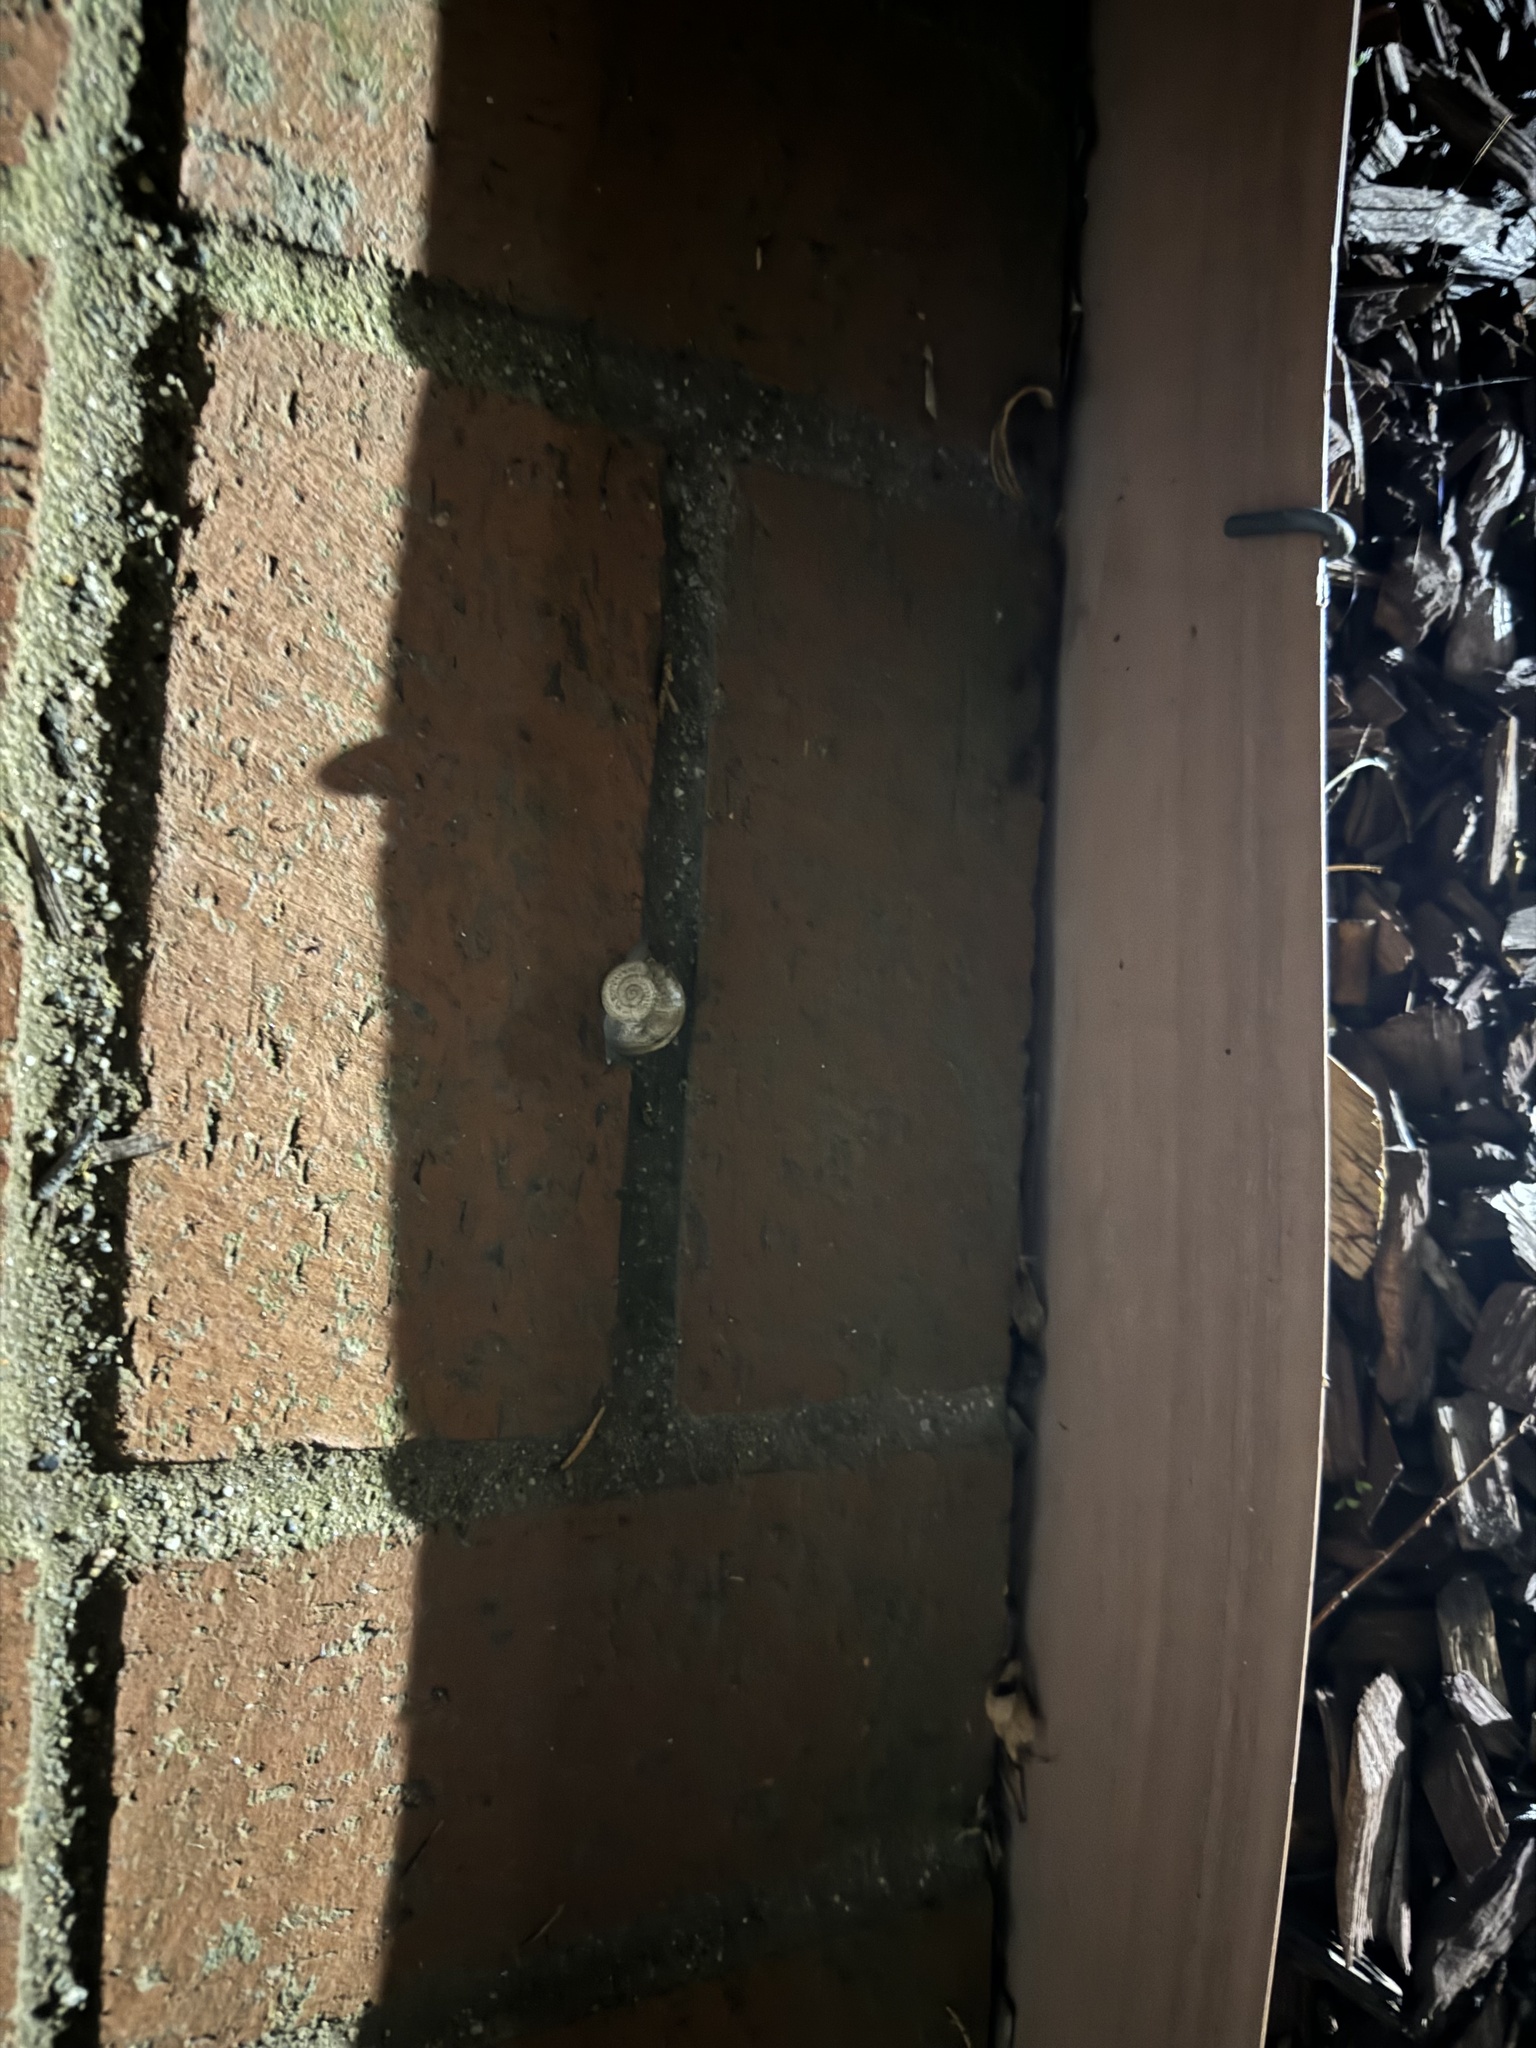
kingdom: Animalia
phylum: Mollusca
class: Gastropoda
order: Stylommatophora
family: Helicidae
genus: Otala
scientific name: Otala lactea
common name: Milk snail
